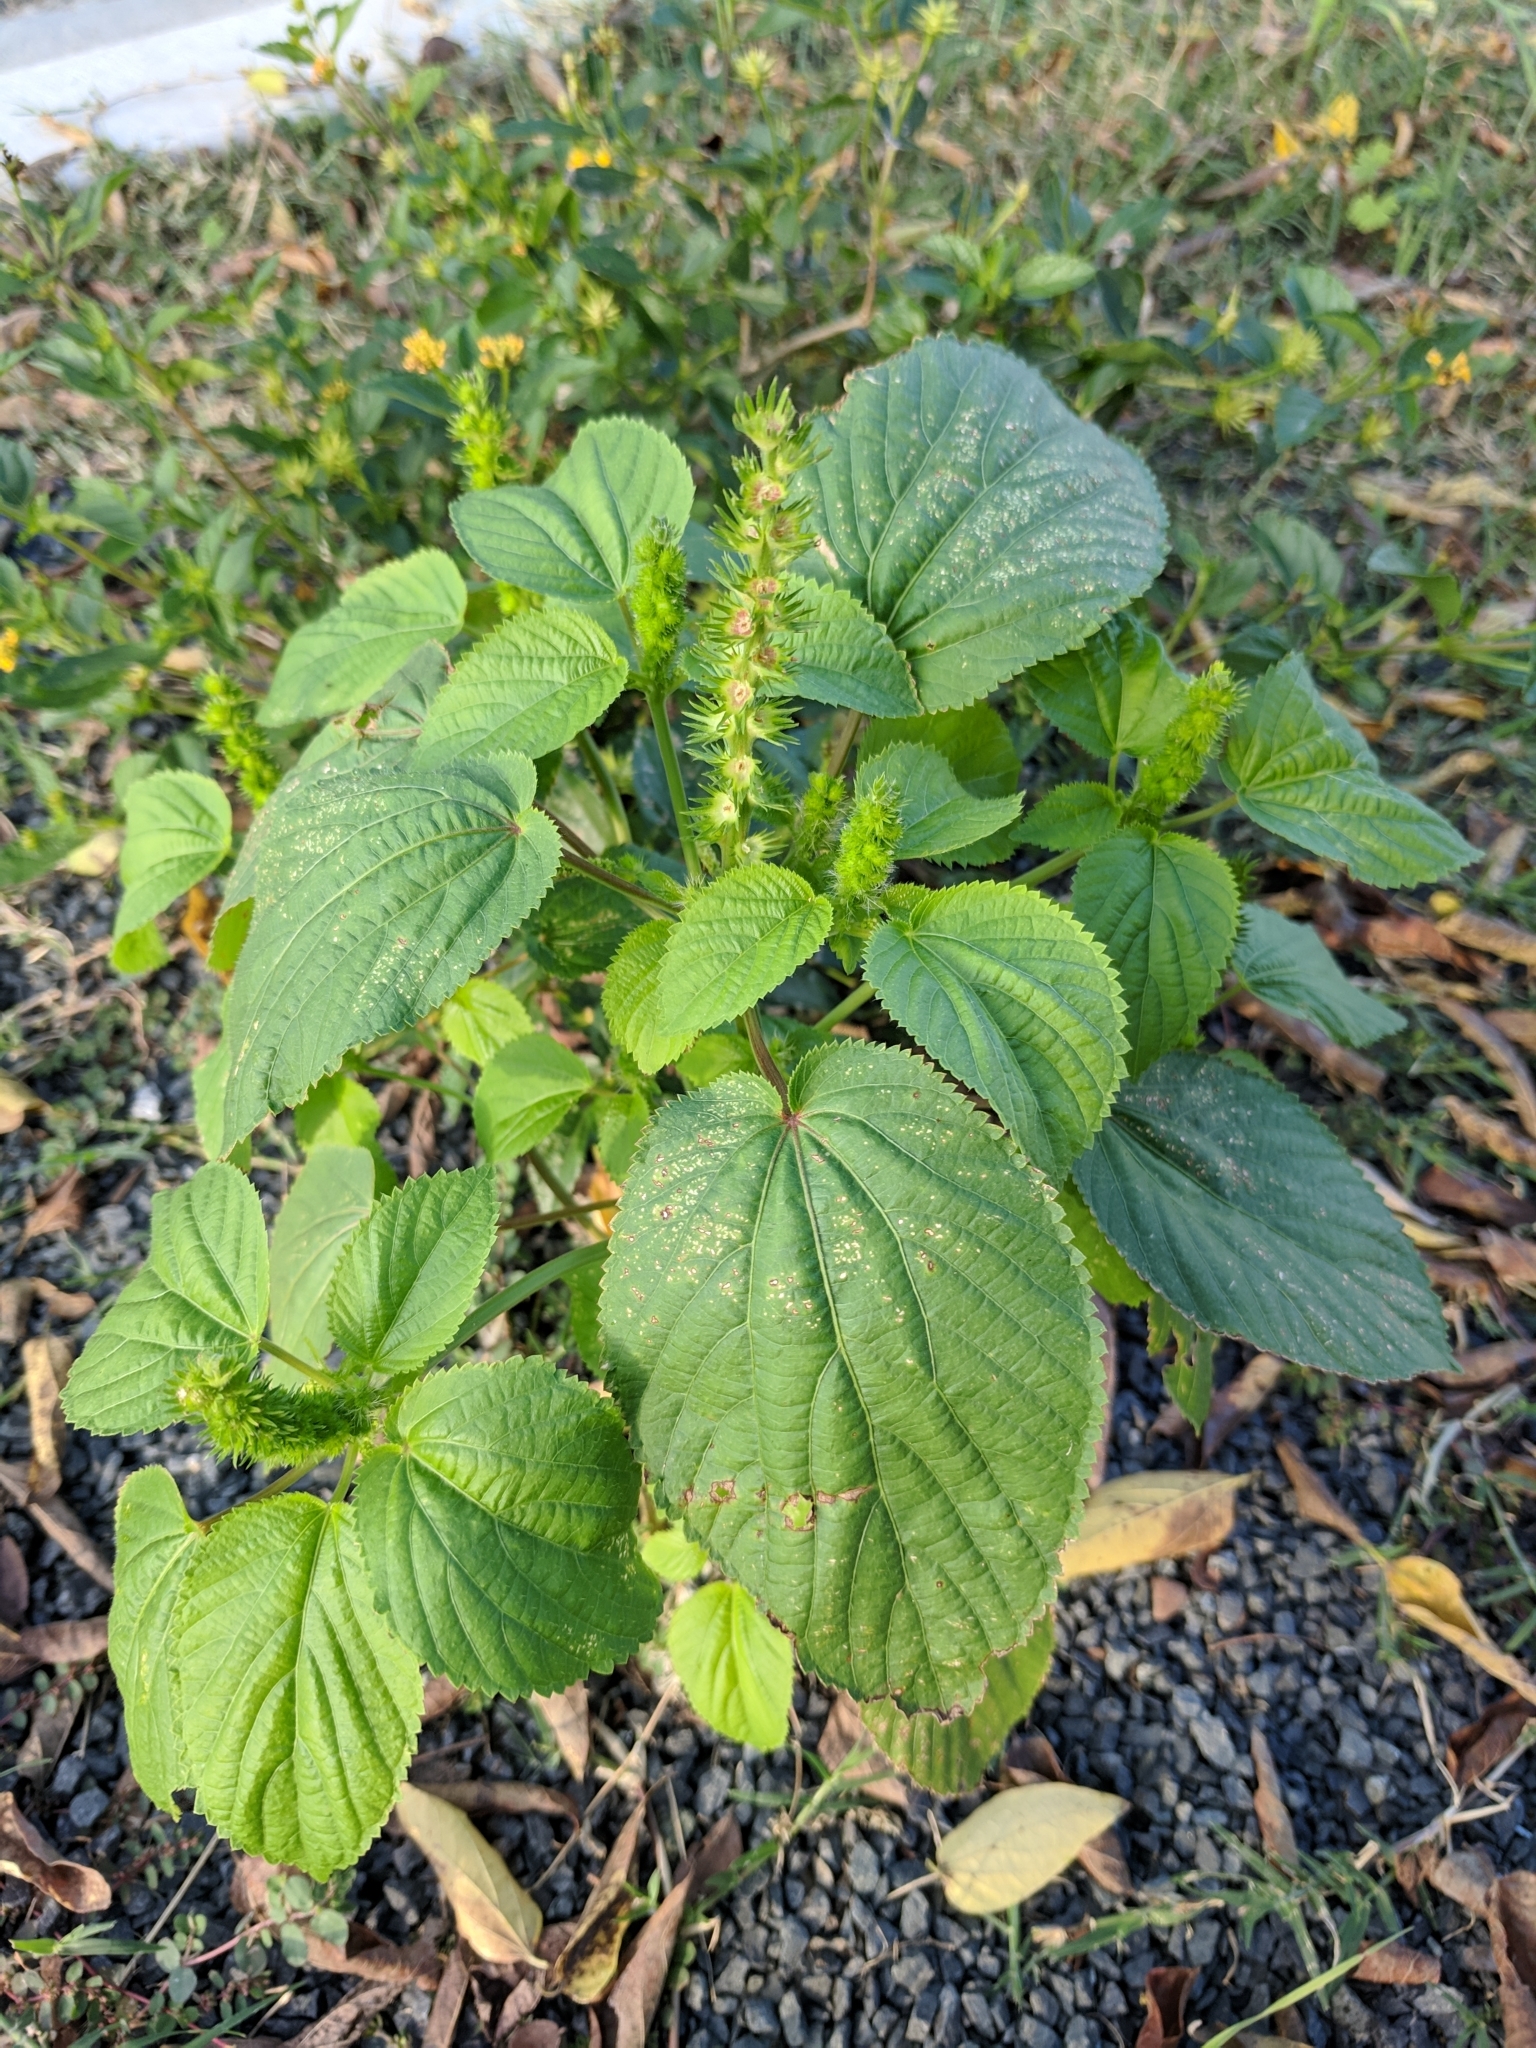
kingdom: Plantae
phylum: Tracheophyta
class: Magnoliopsida
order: Malpighiales
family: Euphorbiaceae
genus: Acalypha
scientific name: Acalypha ostryifolia
